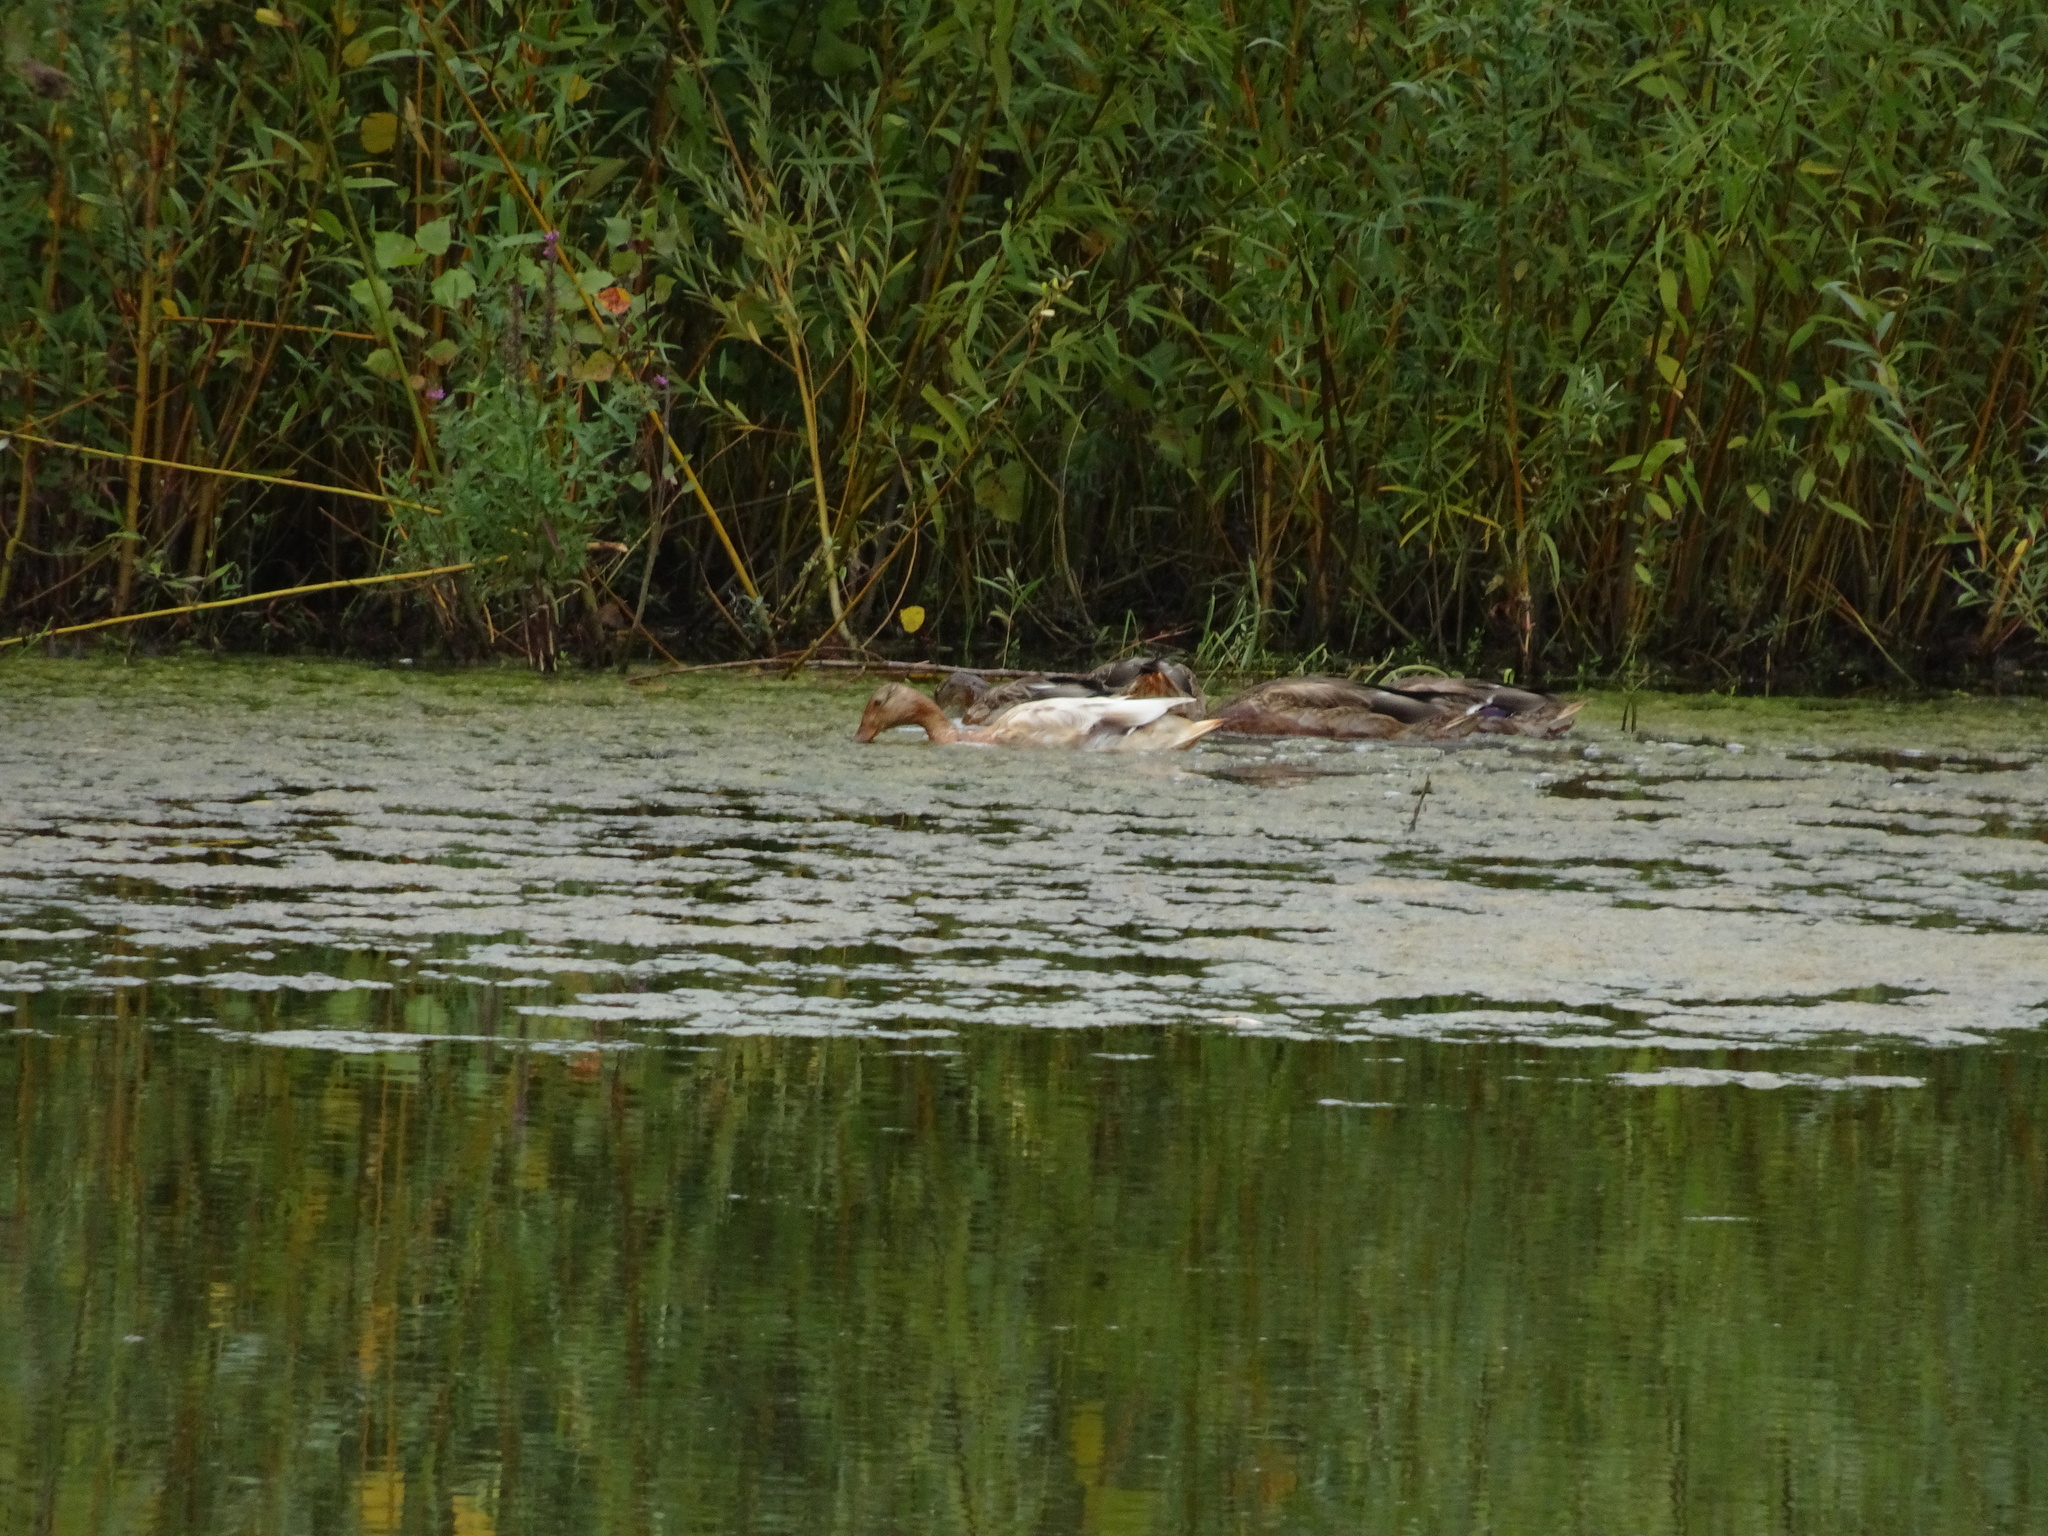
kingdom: Animalia
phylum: Chordata
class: Aves
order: Anseriformes
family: Anatidae
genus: Anas
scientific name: Anas platyrhynchos
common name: Mallard
